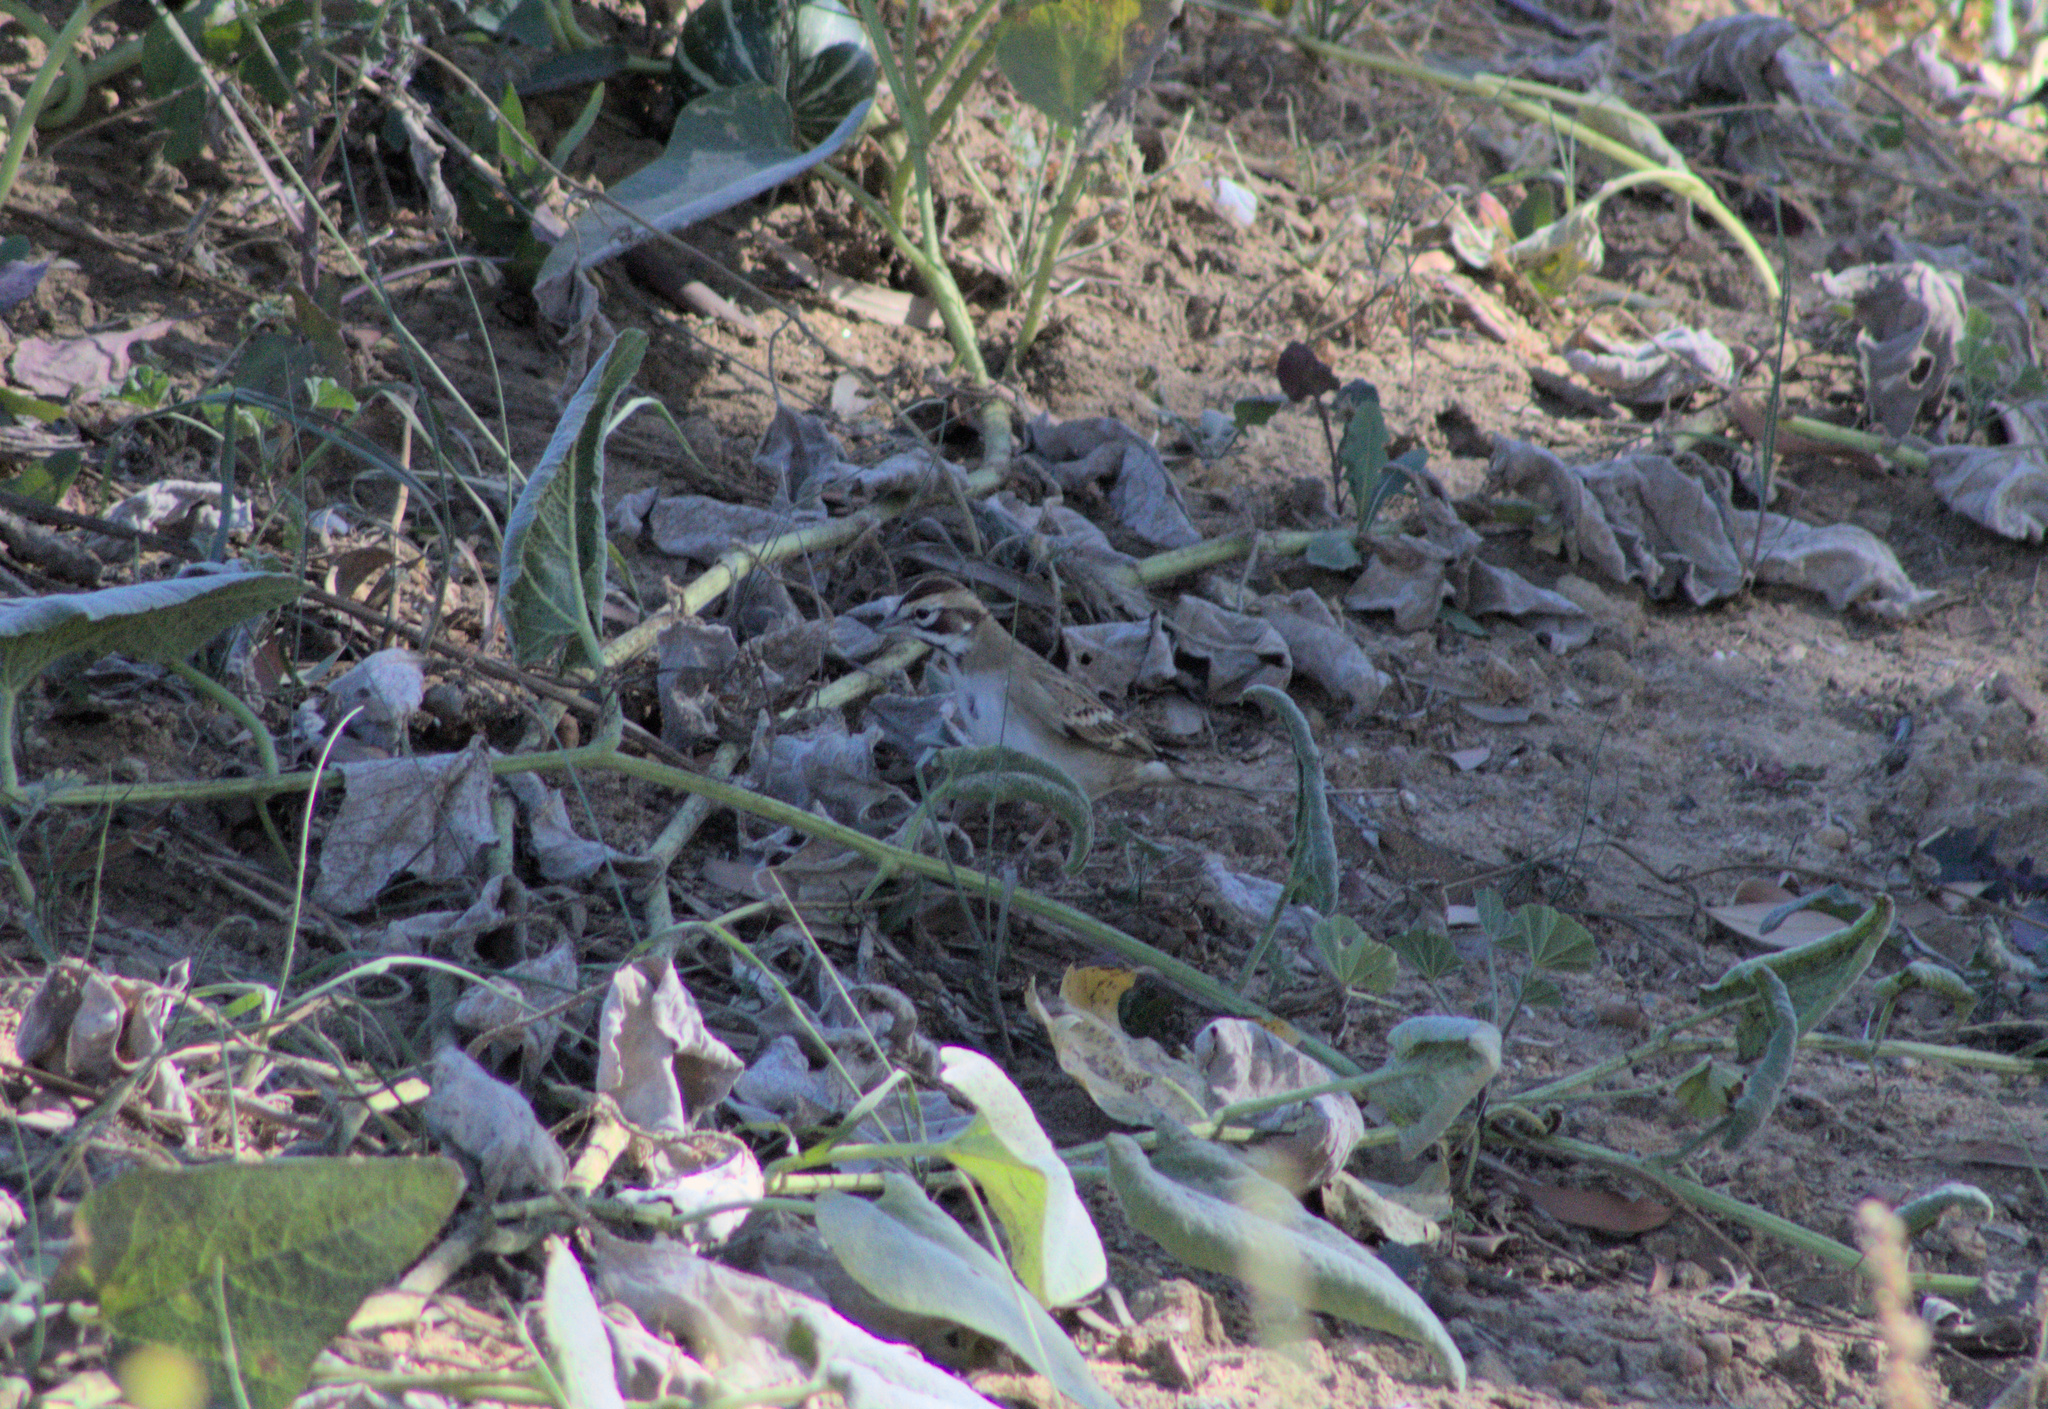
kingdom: Animalia
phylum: Chordata
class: Aves
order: Passeriformes
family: Passerellidae
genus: Chondestes
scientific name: Chondestes grammacus
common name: Lark sparrow
